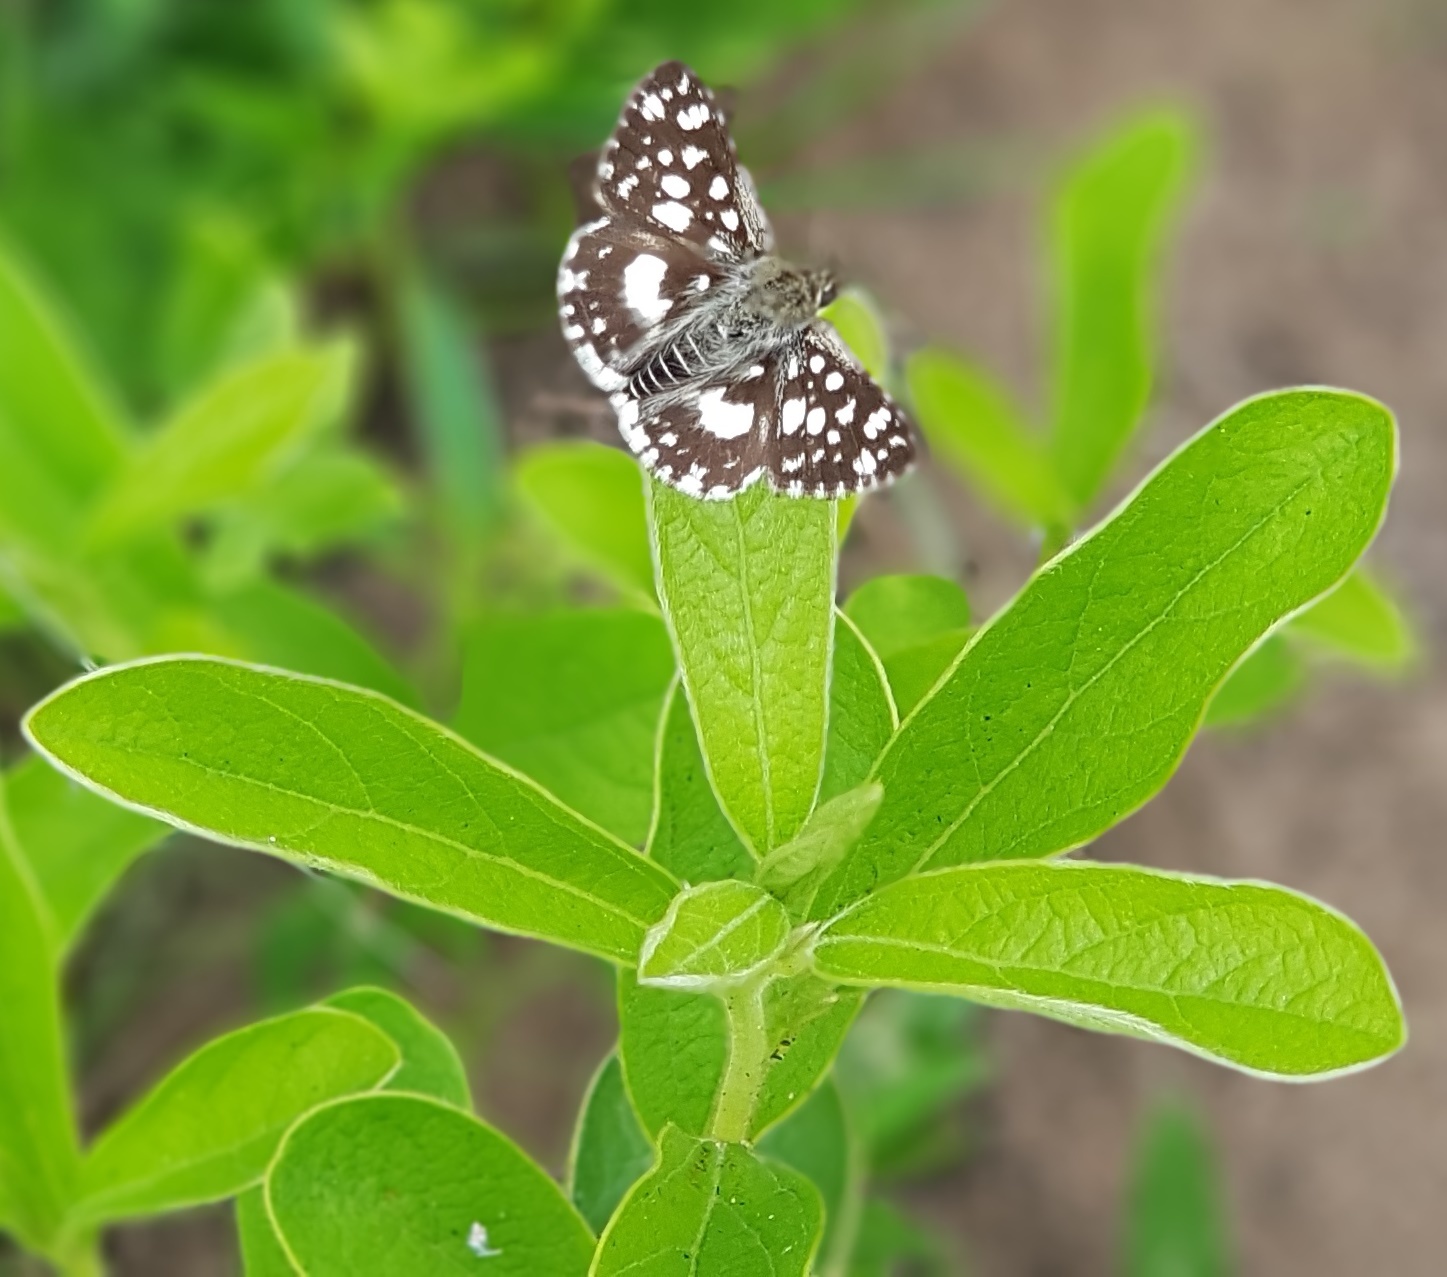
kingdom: Animalia
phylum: Arthropoda
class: Insecta
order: Lepidoptera
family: Hesperiidae
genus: Ernsta
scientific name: Ernsta
